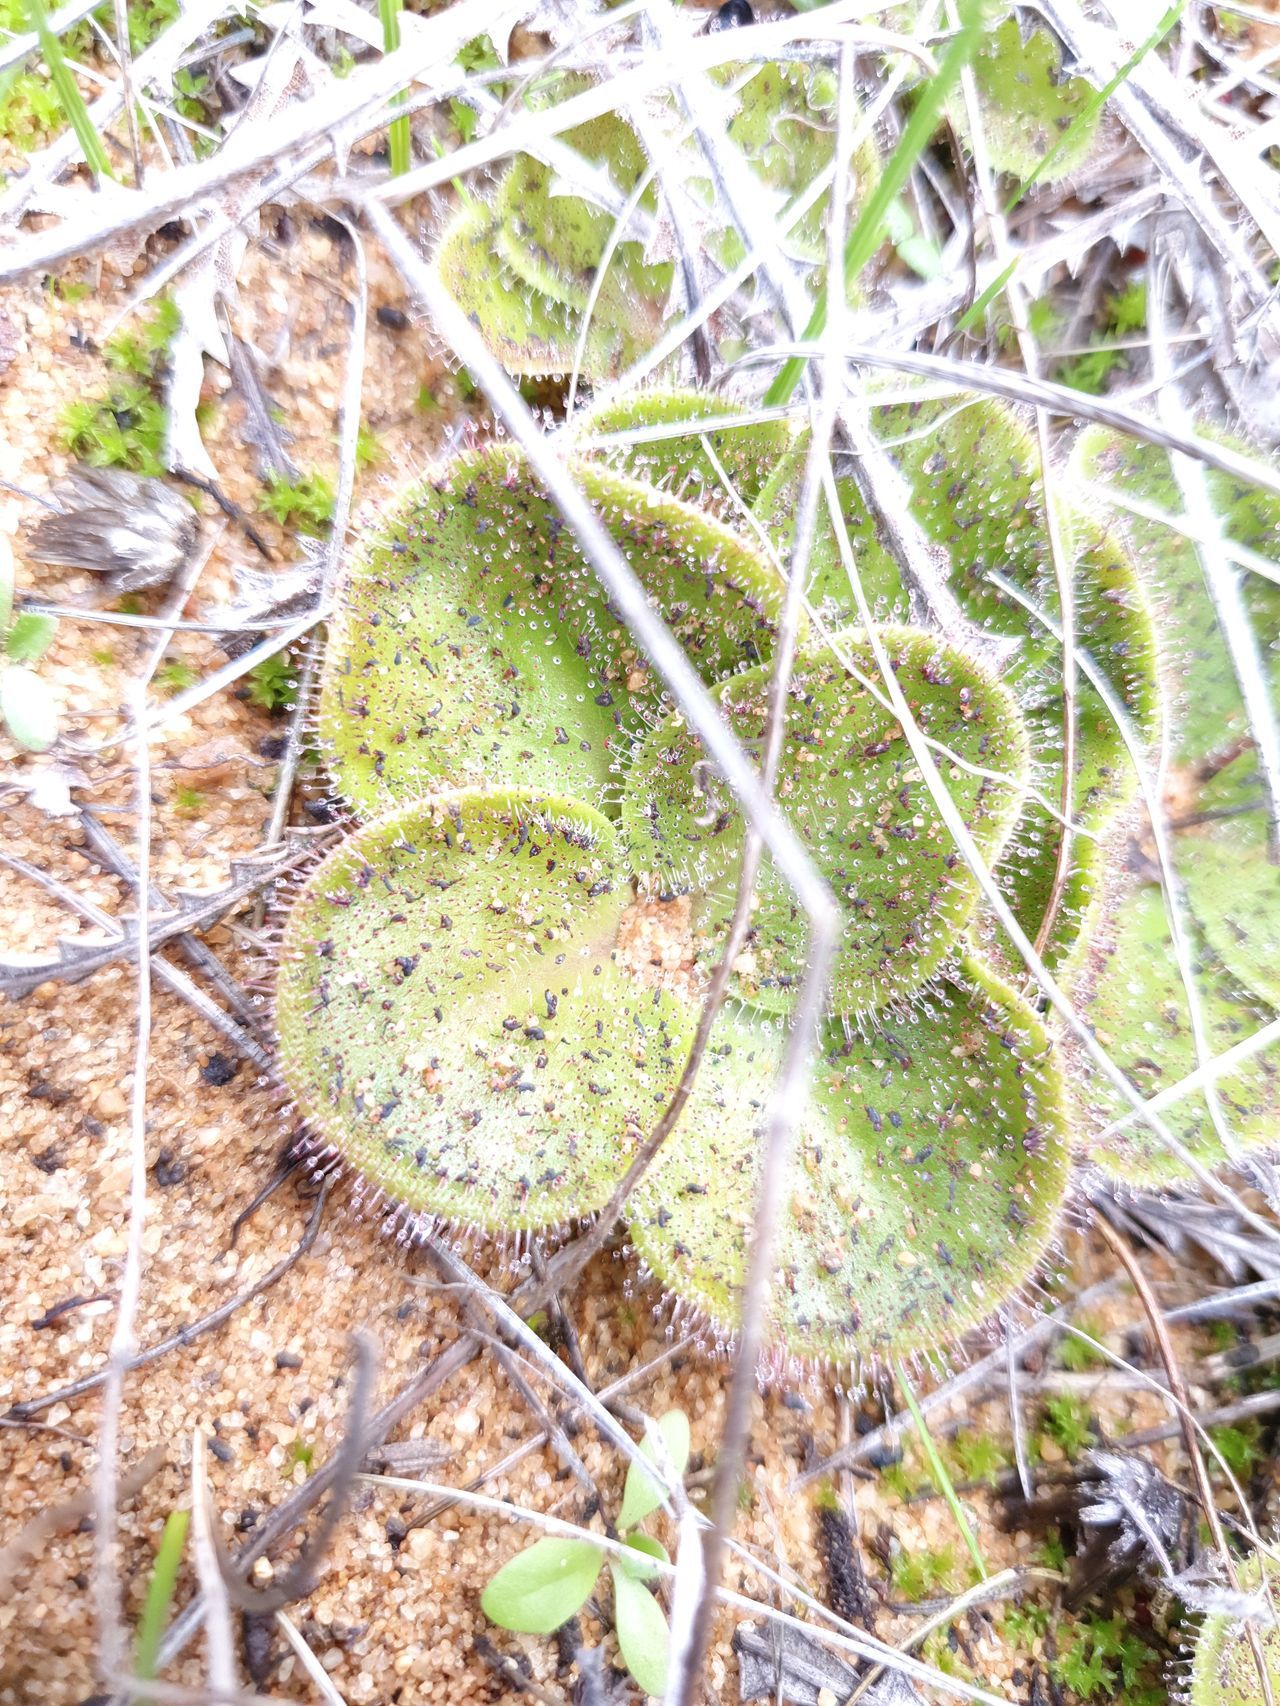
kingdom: Plantae
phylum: Tracheophyta
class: Magnoliopsida
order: Caryophyllales
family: Droseraceae
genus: Drosera
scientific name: Drosera erythrorhiza
